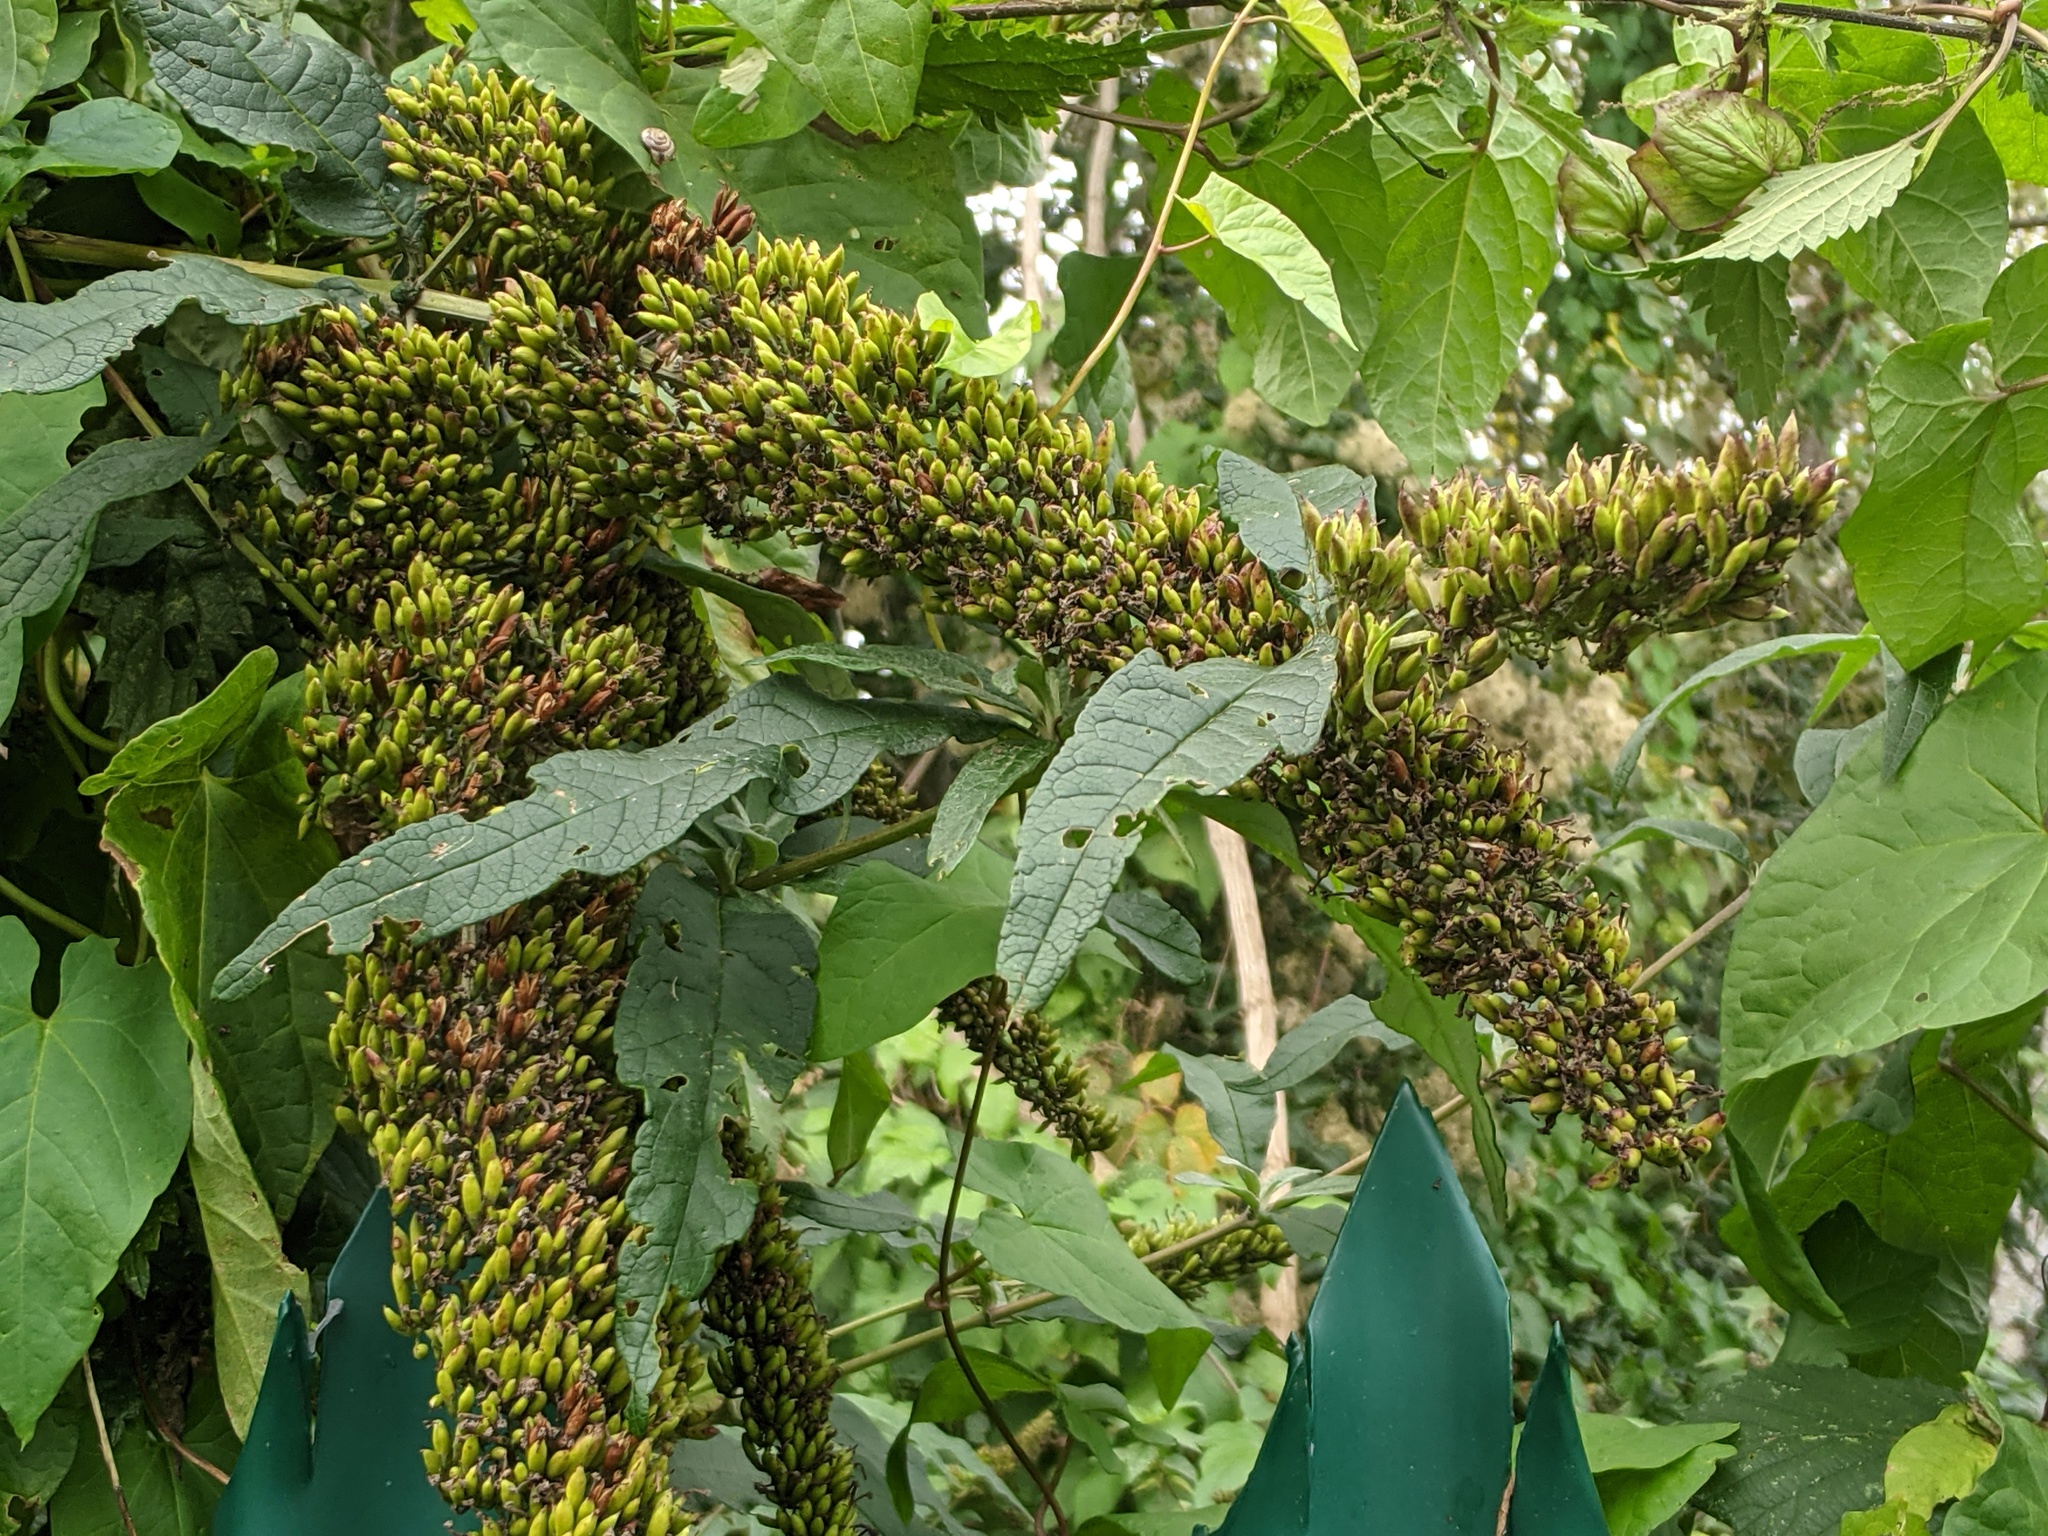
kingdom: Plantae
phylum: Tracheophyta
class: Magnoliopsida
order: Lamiales
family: Scrophulariaceae
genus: Buddleja
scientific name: Buddleja davidii
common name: Butterfly-bush
